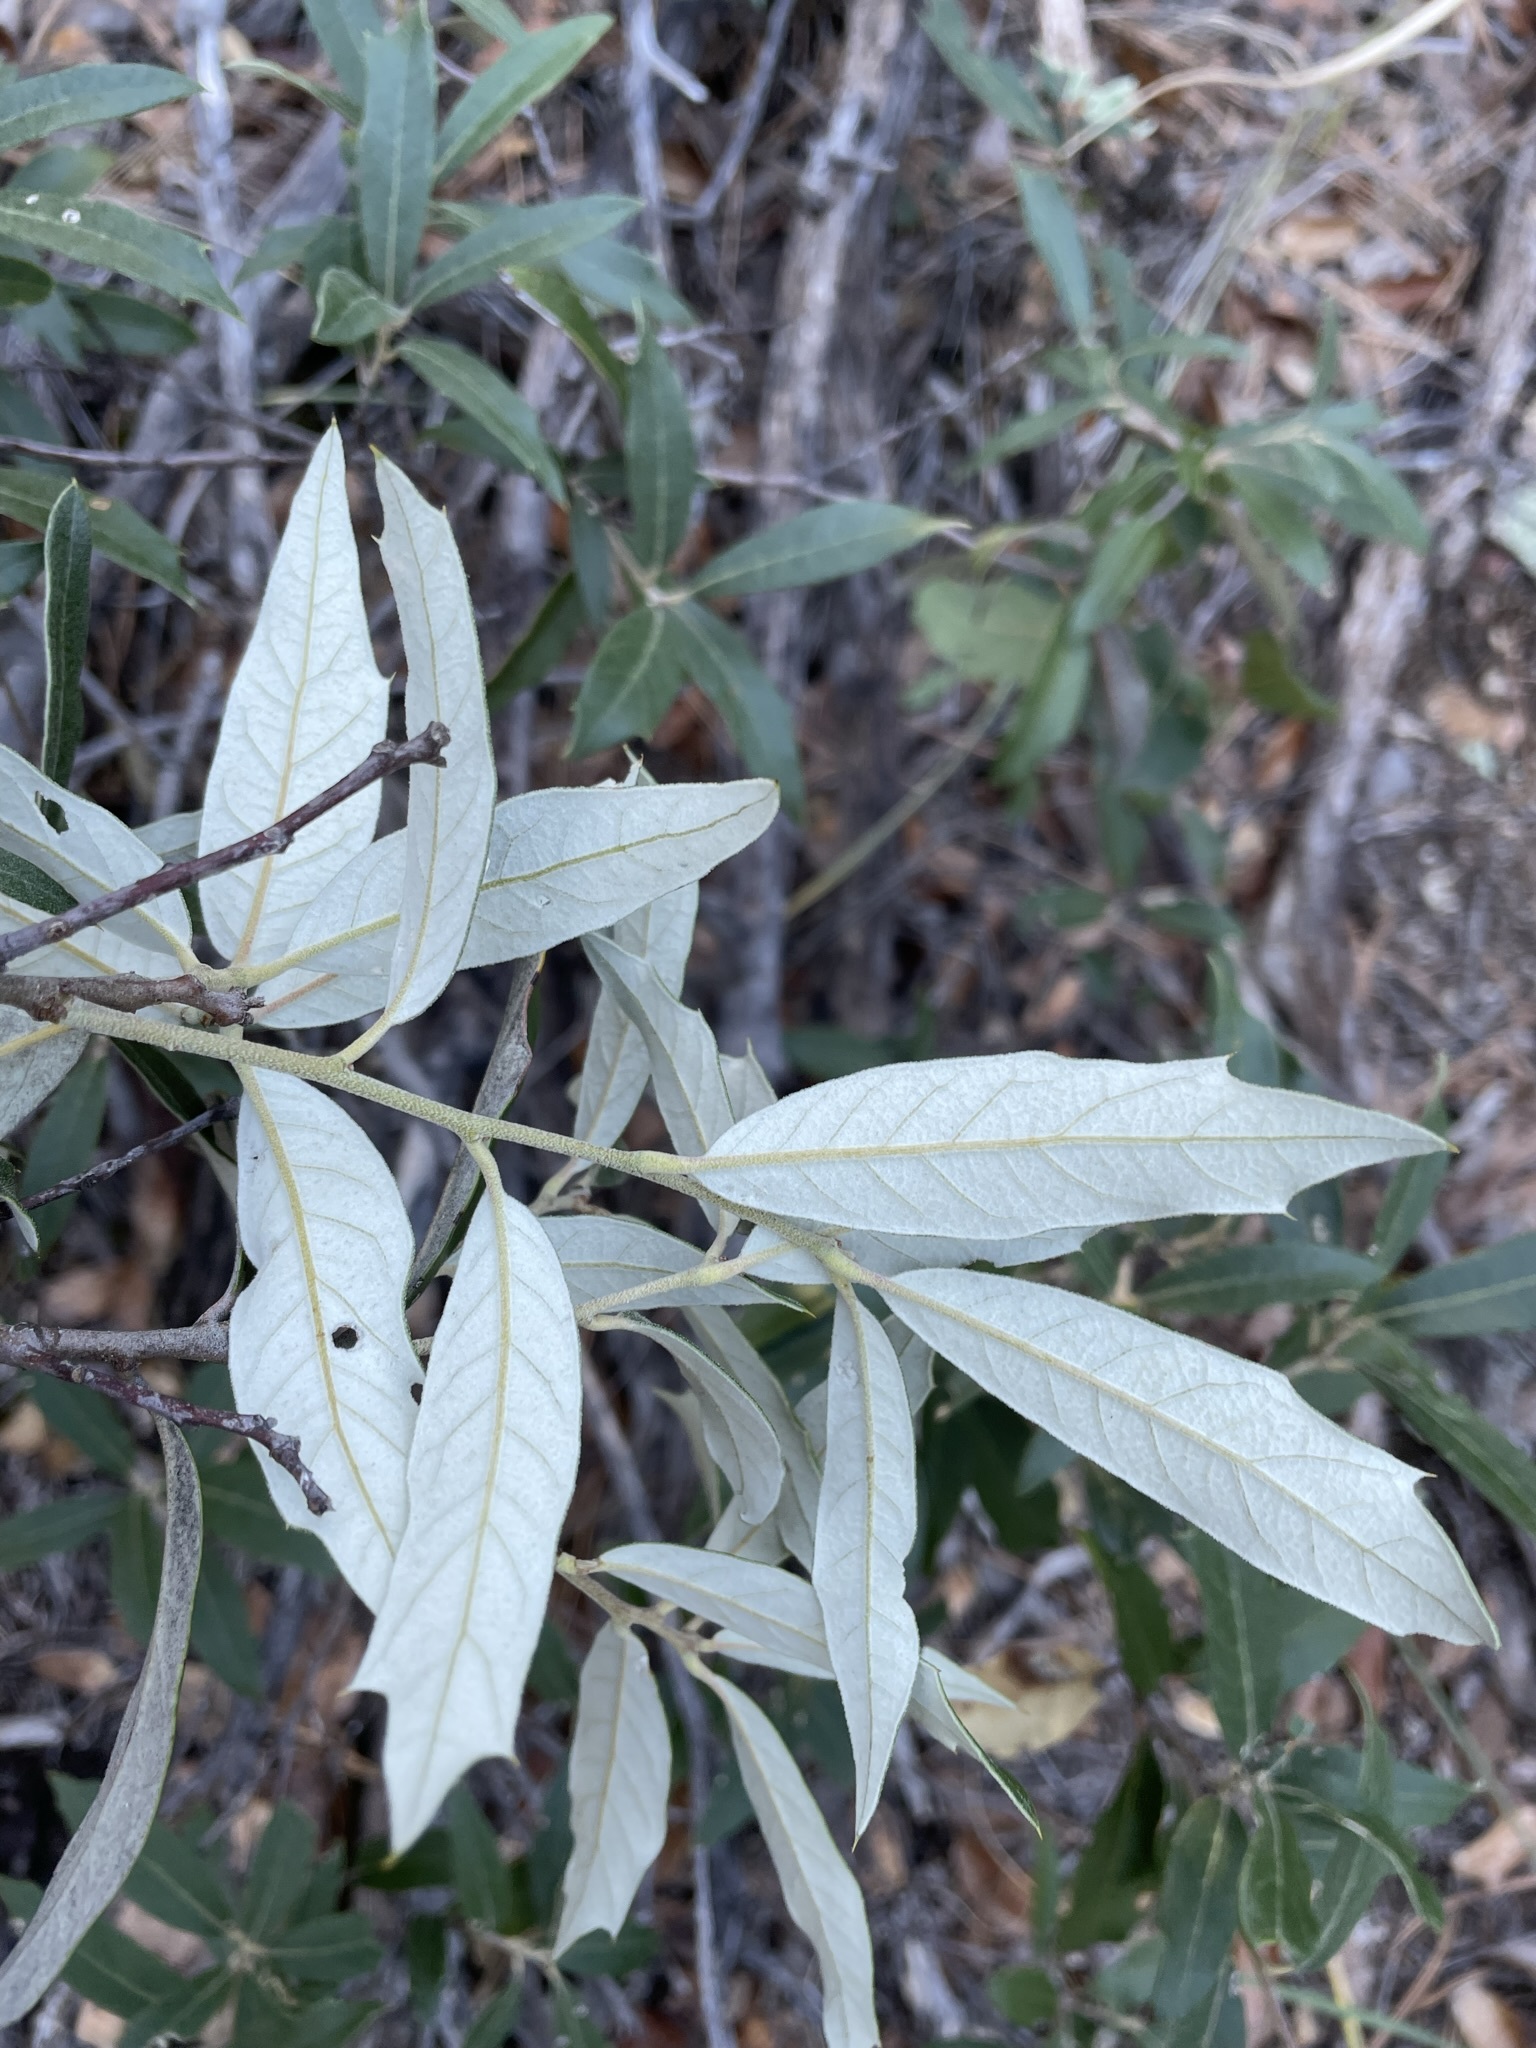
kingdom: Plantae
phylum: Tracheophyta
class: Magnoliopsida
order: Fagales
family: Fagaceae
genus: Quercus
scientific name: Quercus hypoleucoides
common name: Silverleaf oak
